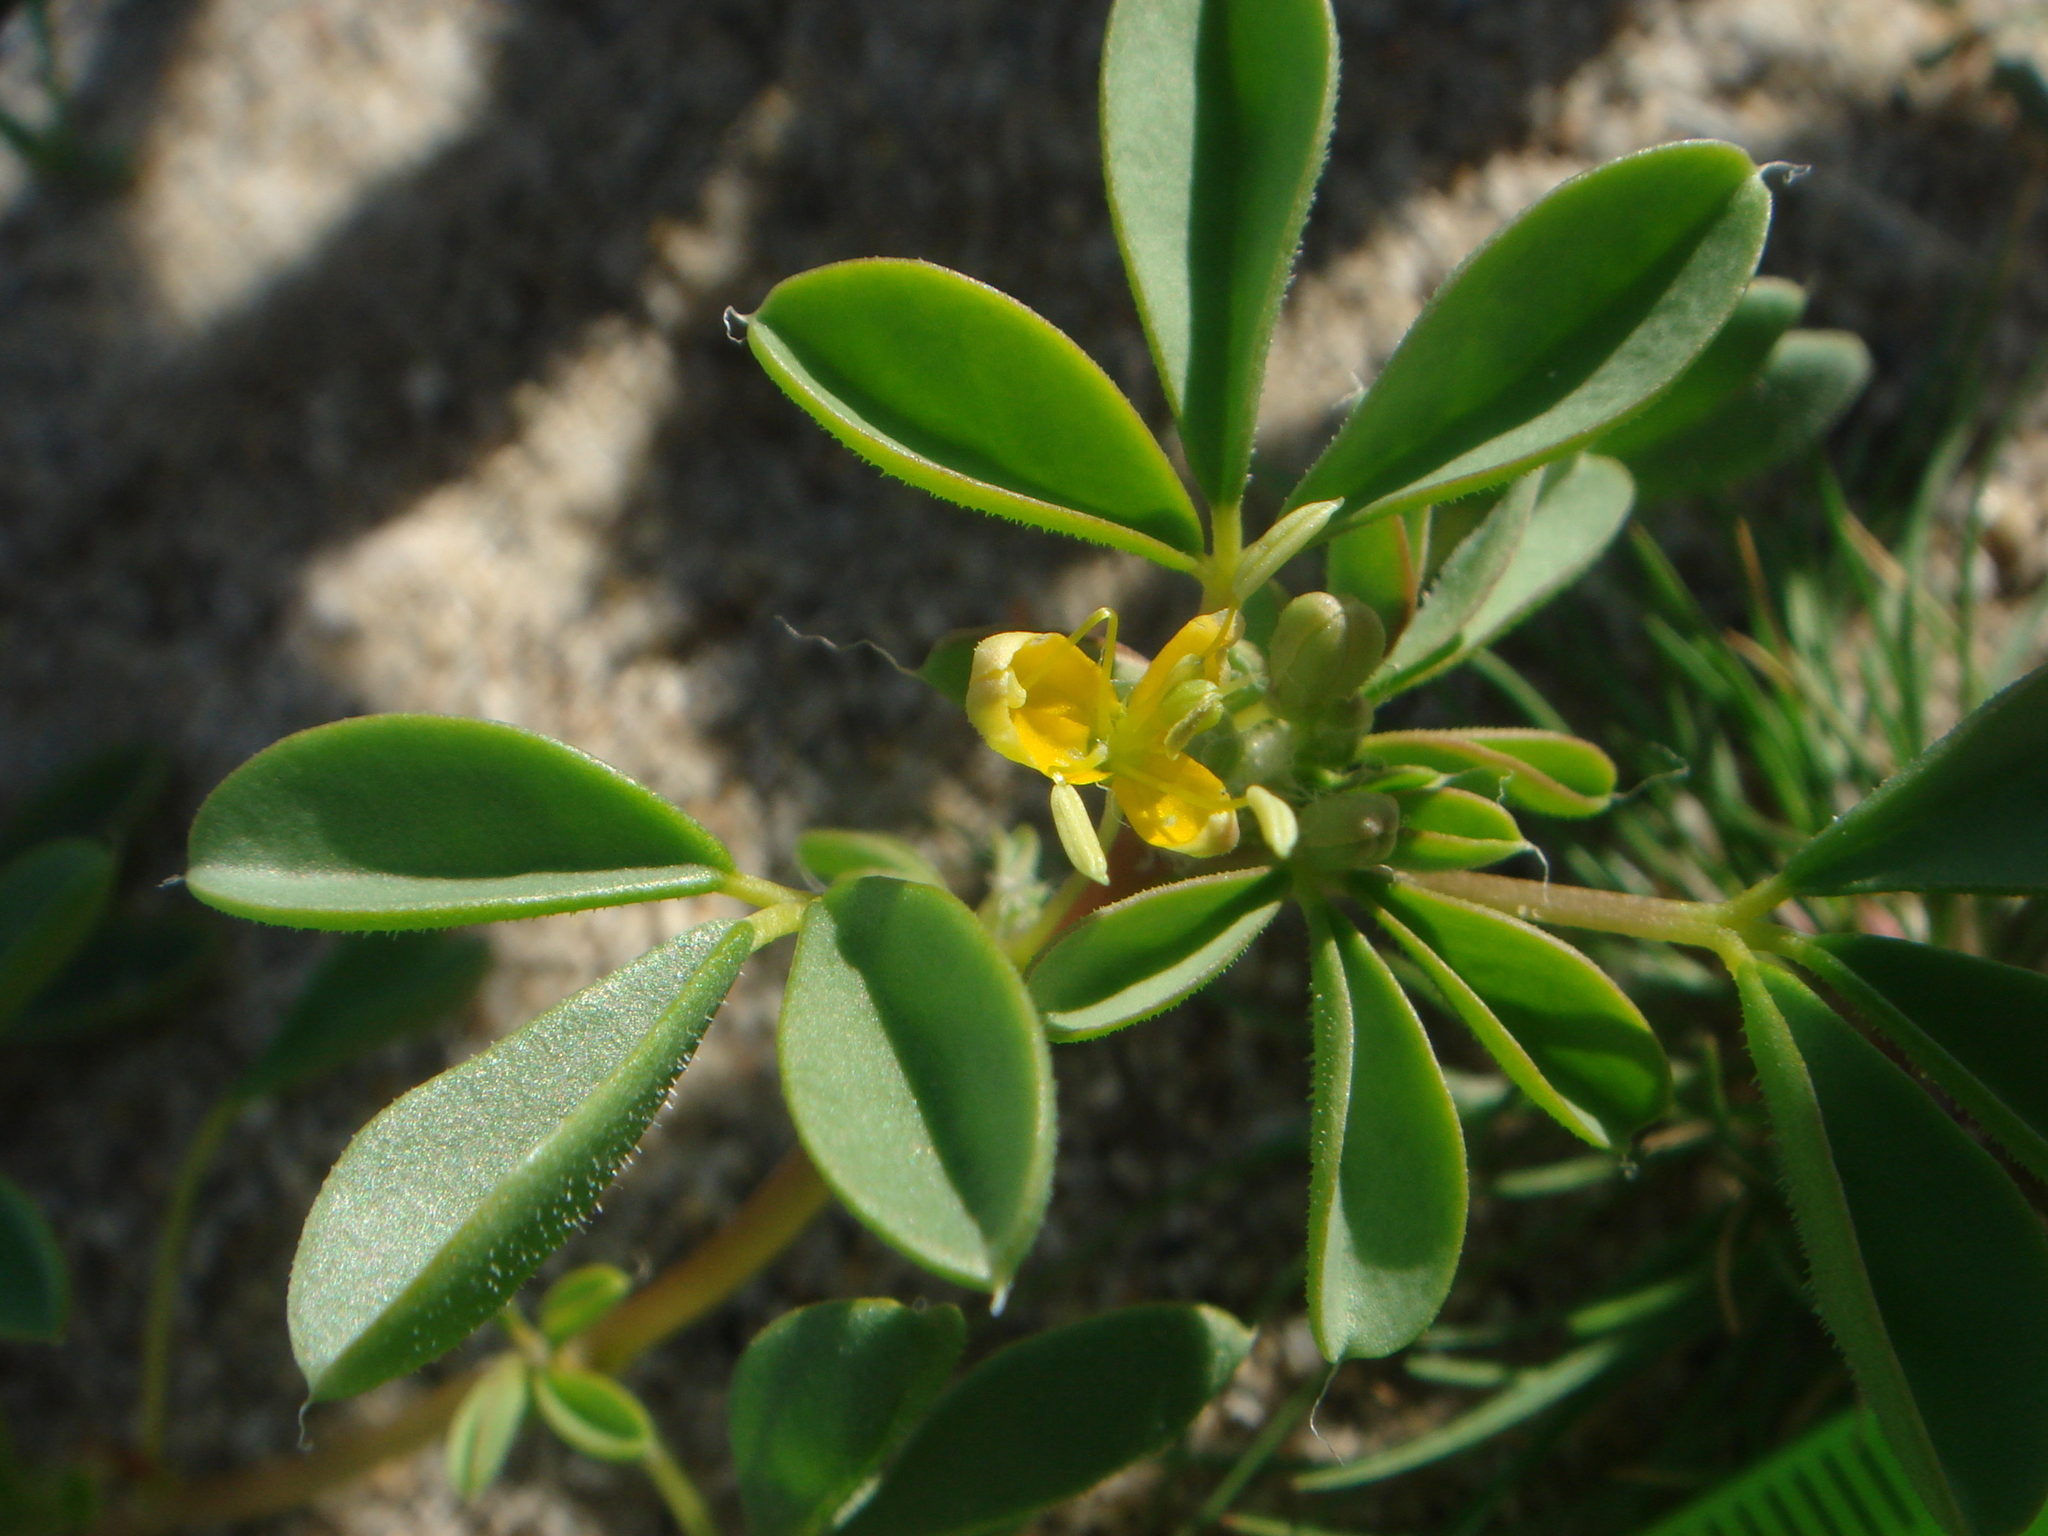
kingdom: Plantae
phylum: Tracheophyta
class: Magnoliopsida
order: Brassicales
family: Cleomaceae
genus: Cleomella
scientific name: Cleomella obtusifolia
